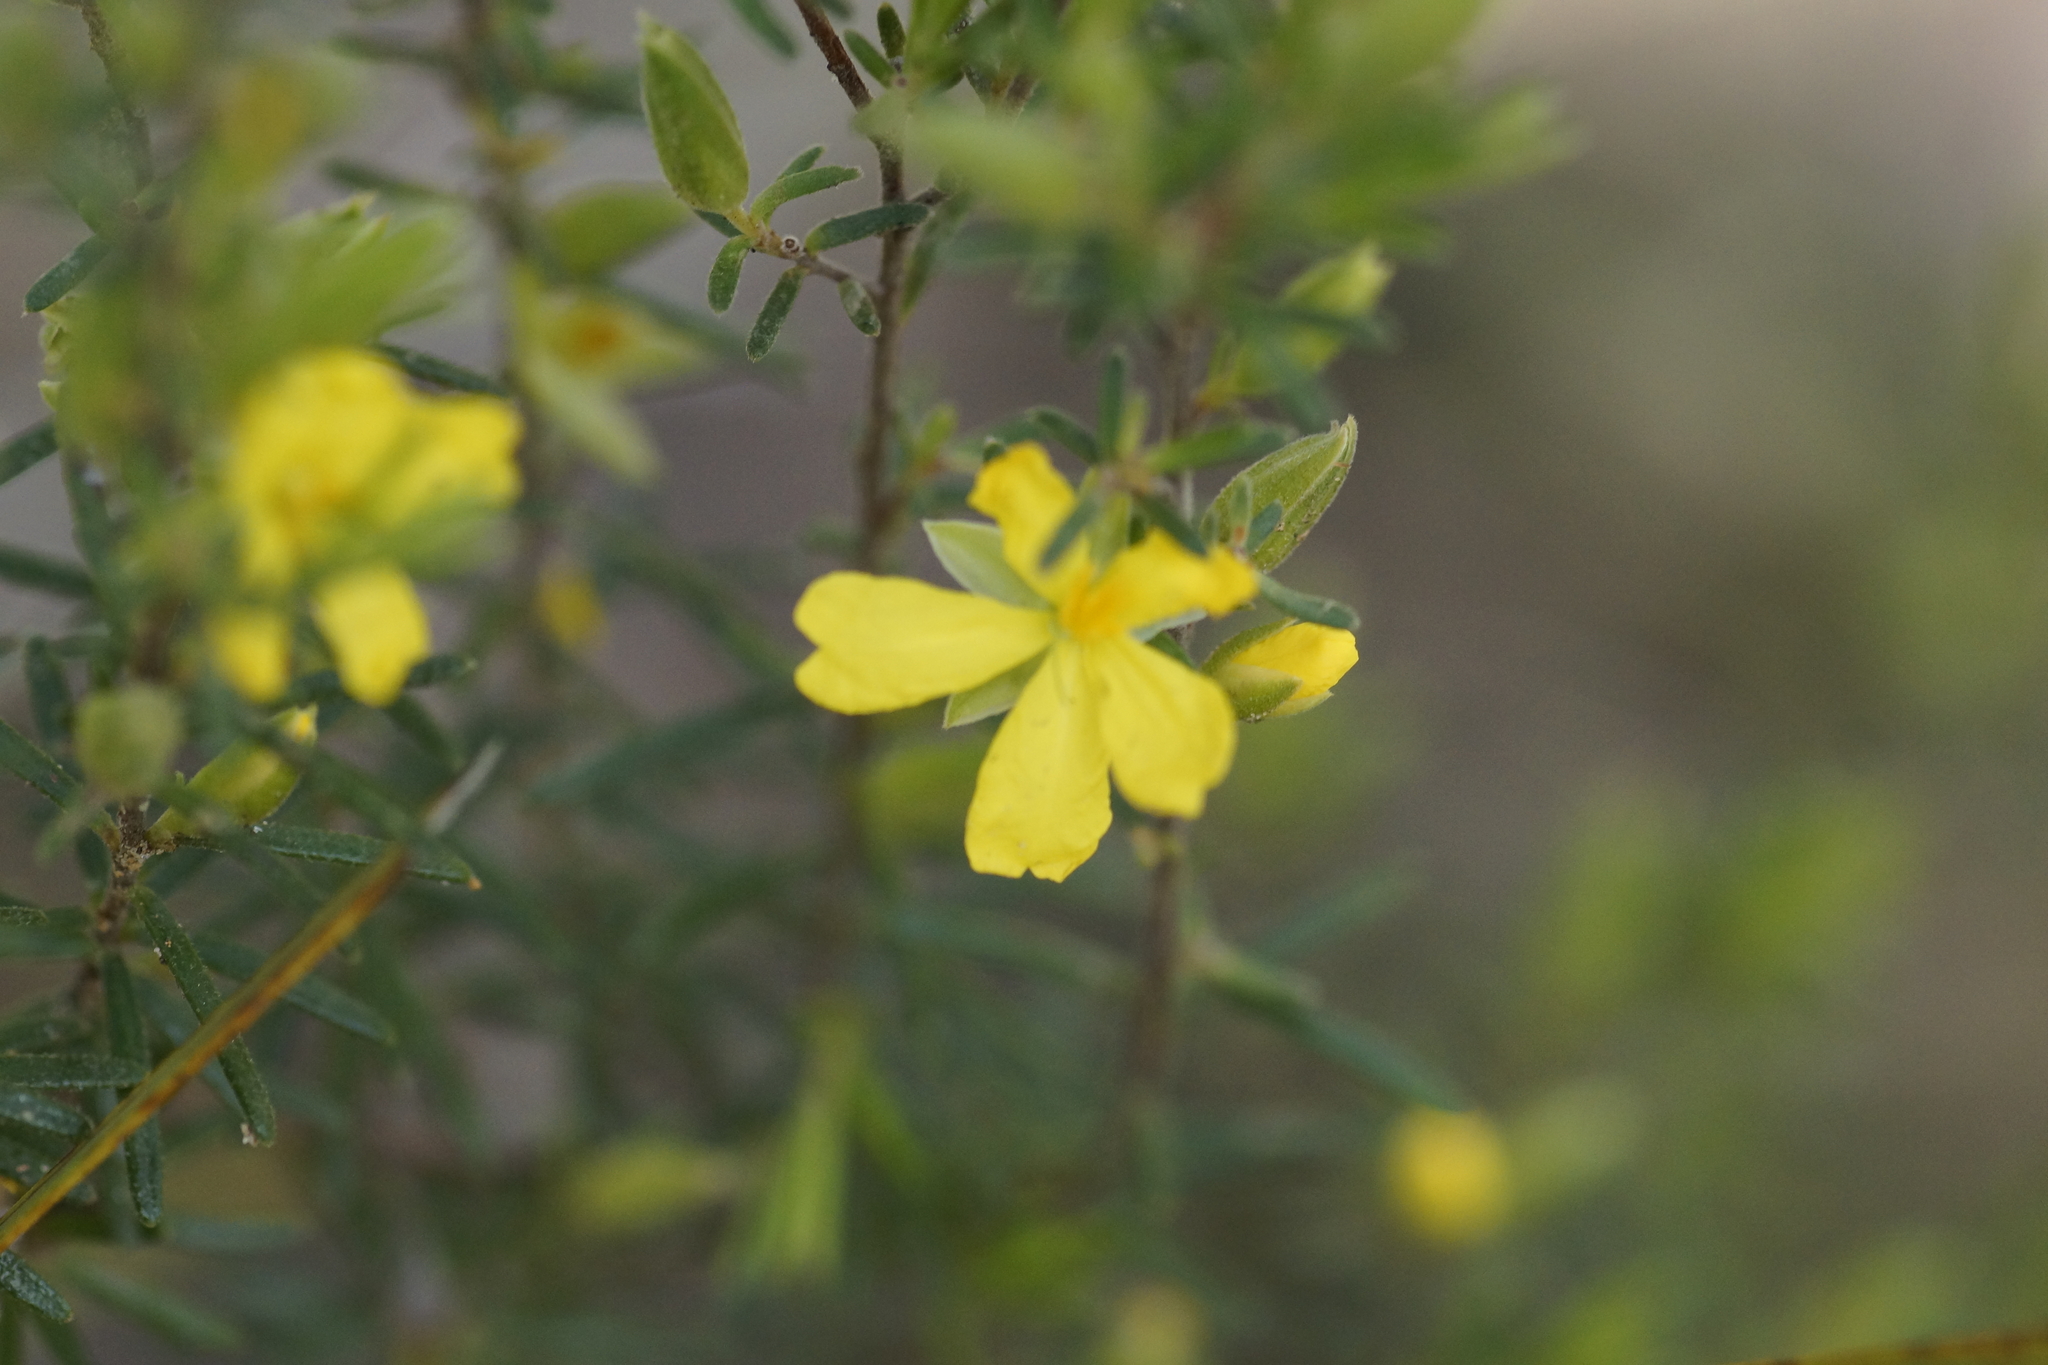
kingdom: Plantae
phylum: Tracheophyta
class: Magnoliopsida
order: Dilleniales
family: Dilleniaceae
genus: Hibbertia
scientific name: Hibbertia riparia
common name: Erect guinea-flower
